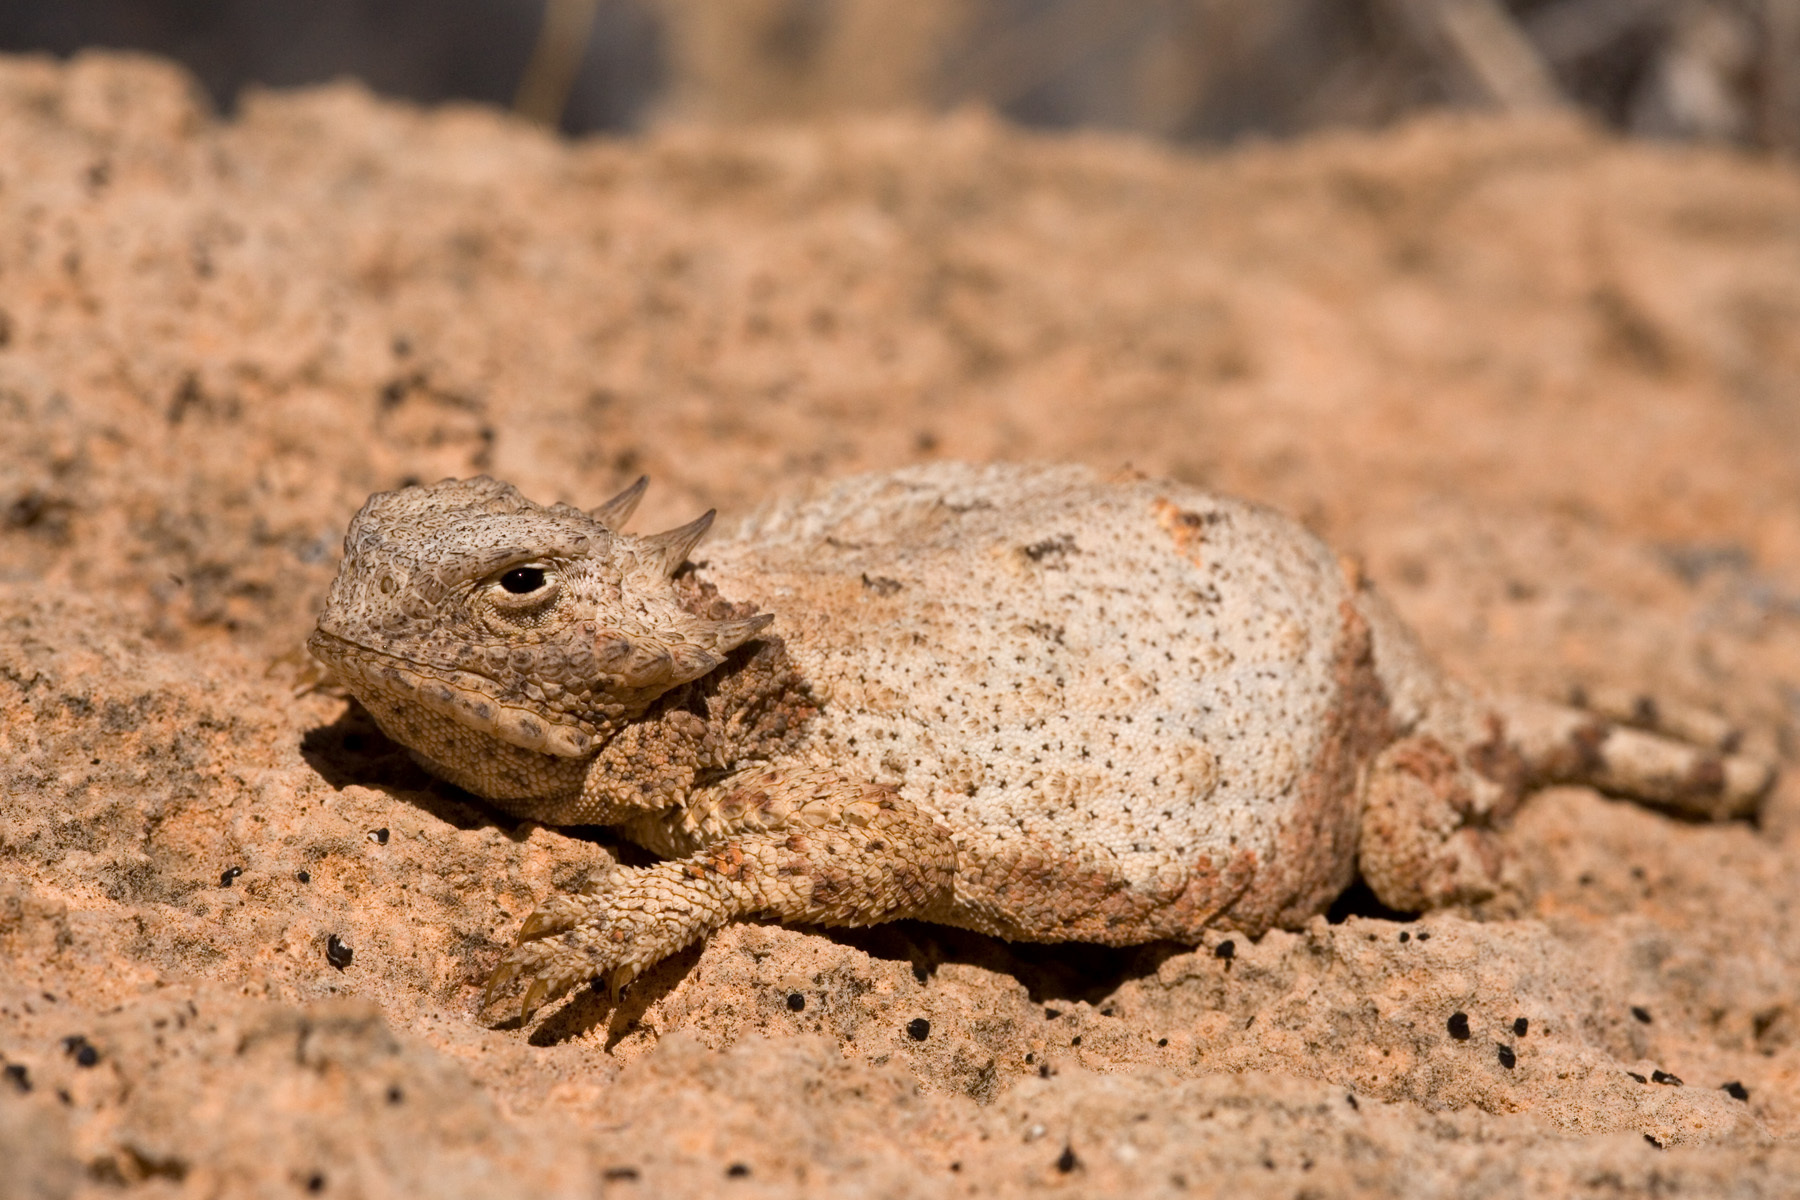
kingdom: Animalia
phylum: Chordata
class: Squamata
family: Phrynosomatidae
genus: Phrynosoma
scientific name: Phrynosoma modestum
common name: Roundtail horned lizard
